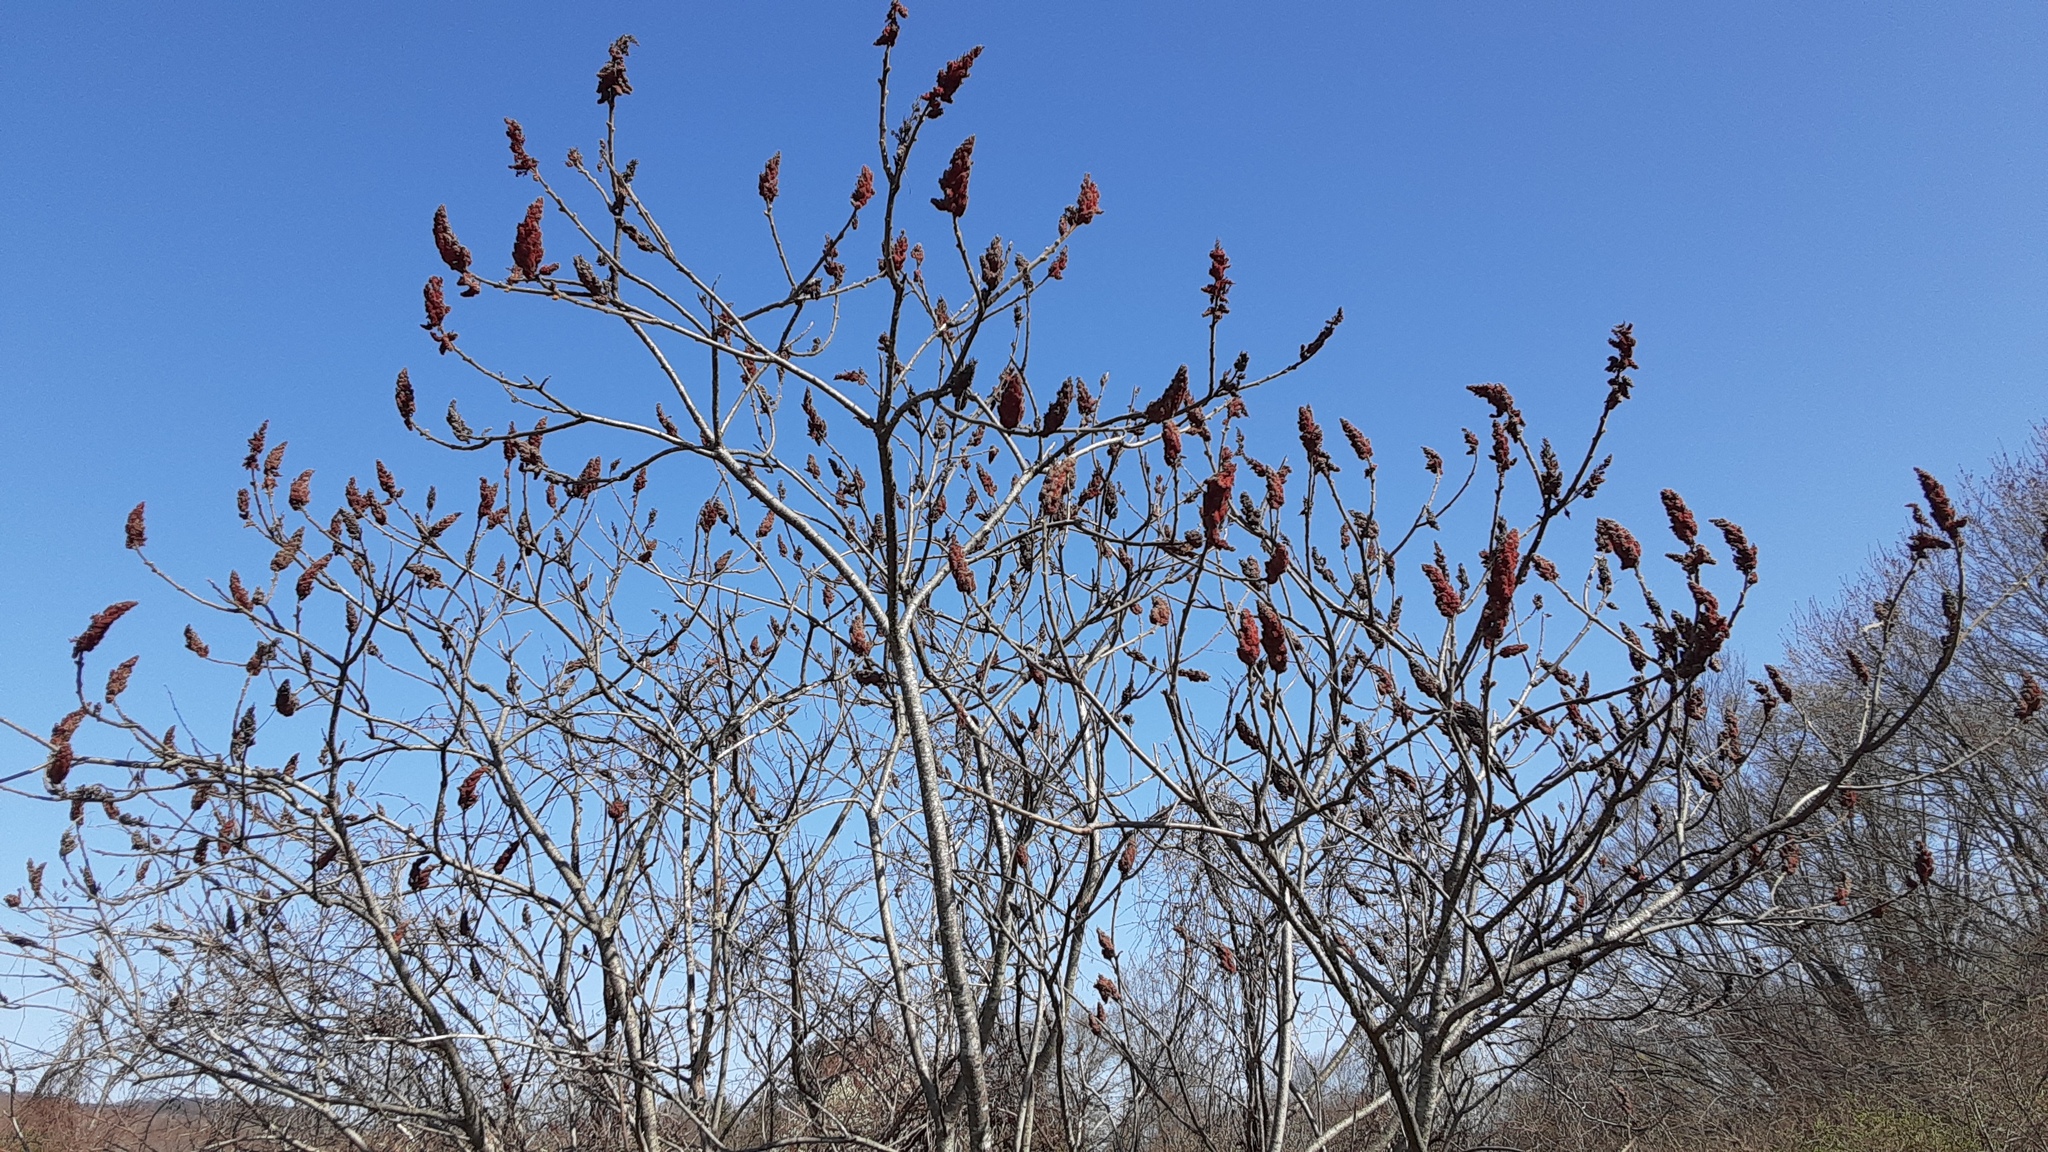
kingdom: Plantae
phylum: Tracheophyta
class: Magnoliopsida
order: Sapindales
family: Anacardiaceae
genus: Rhus
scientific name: Rhus typhina
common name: Staghorn sumac
